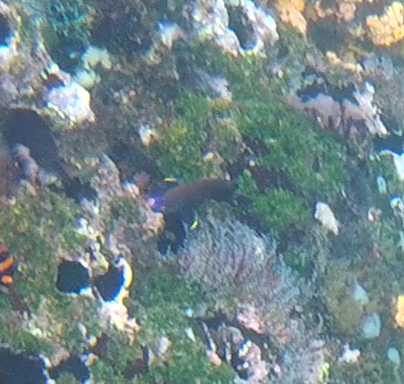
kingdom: Animalia
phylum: Chordata
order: Perciformes
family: Pomacentridae
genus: Stegastes
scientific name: Stegastes beebei
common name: Galapagos ringtail damselfish
